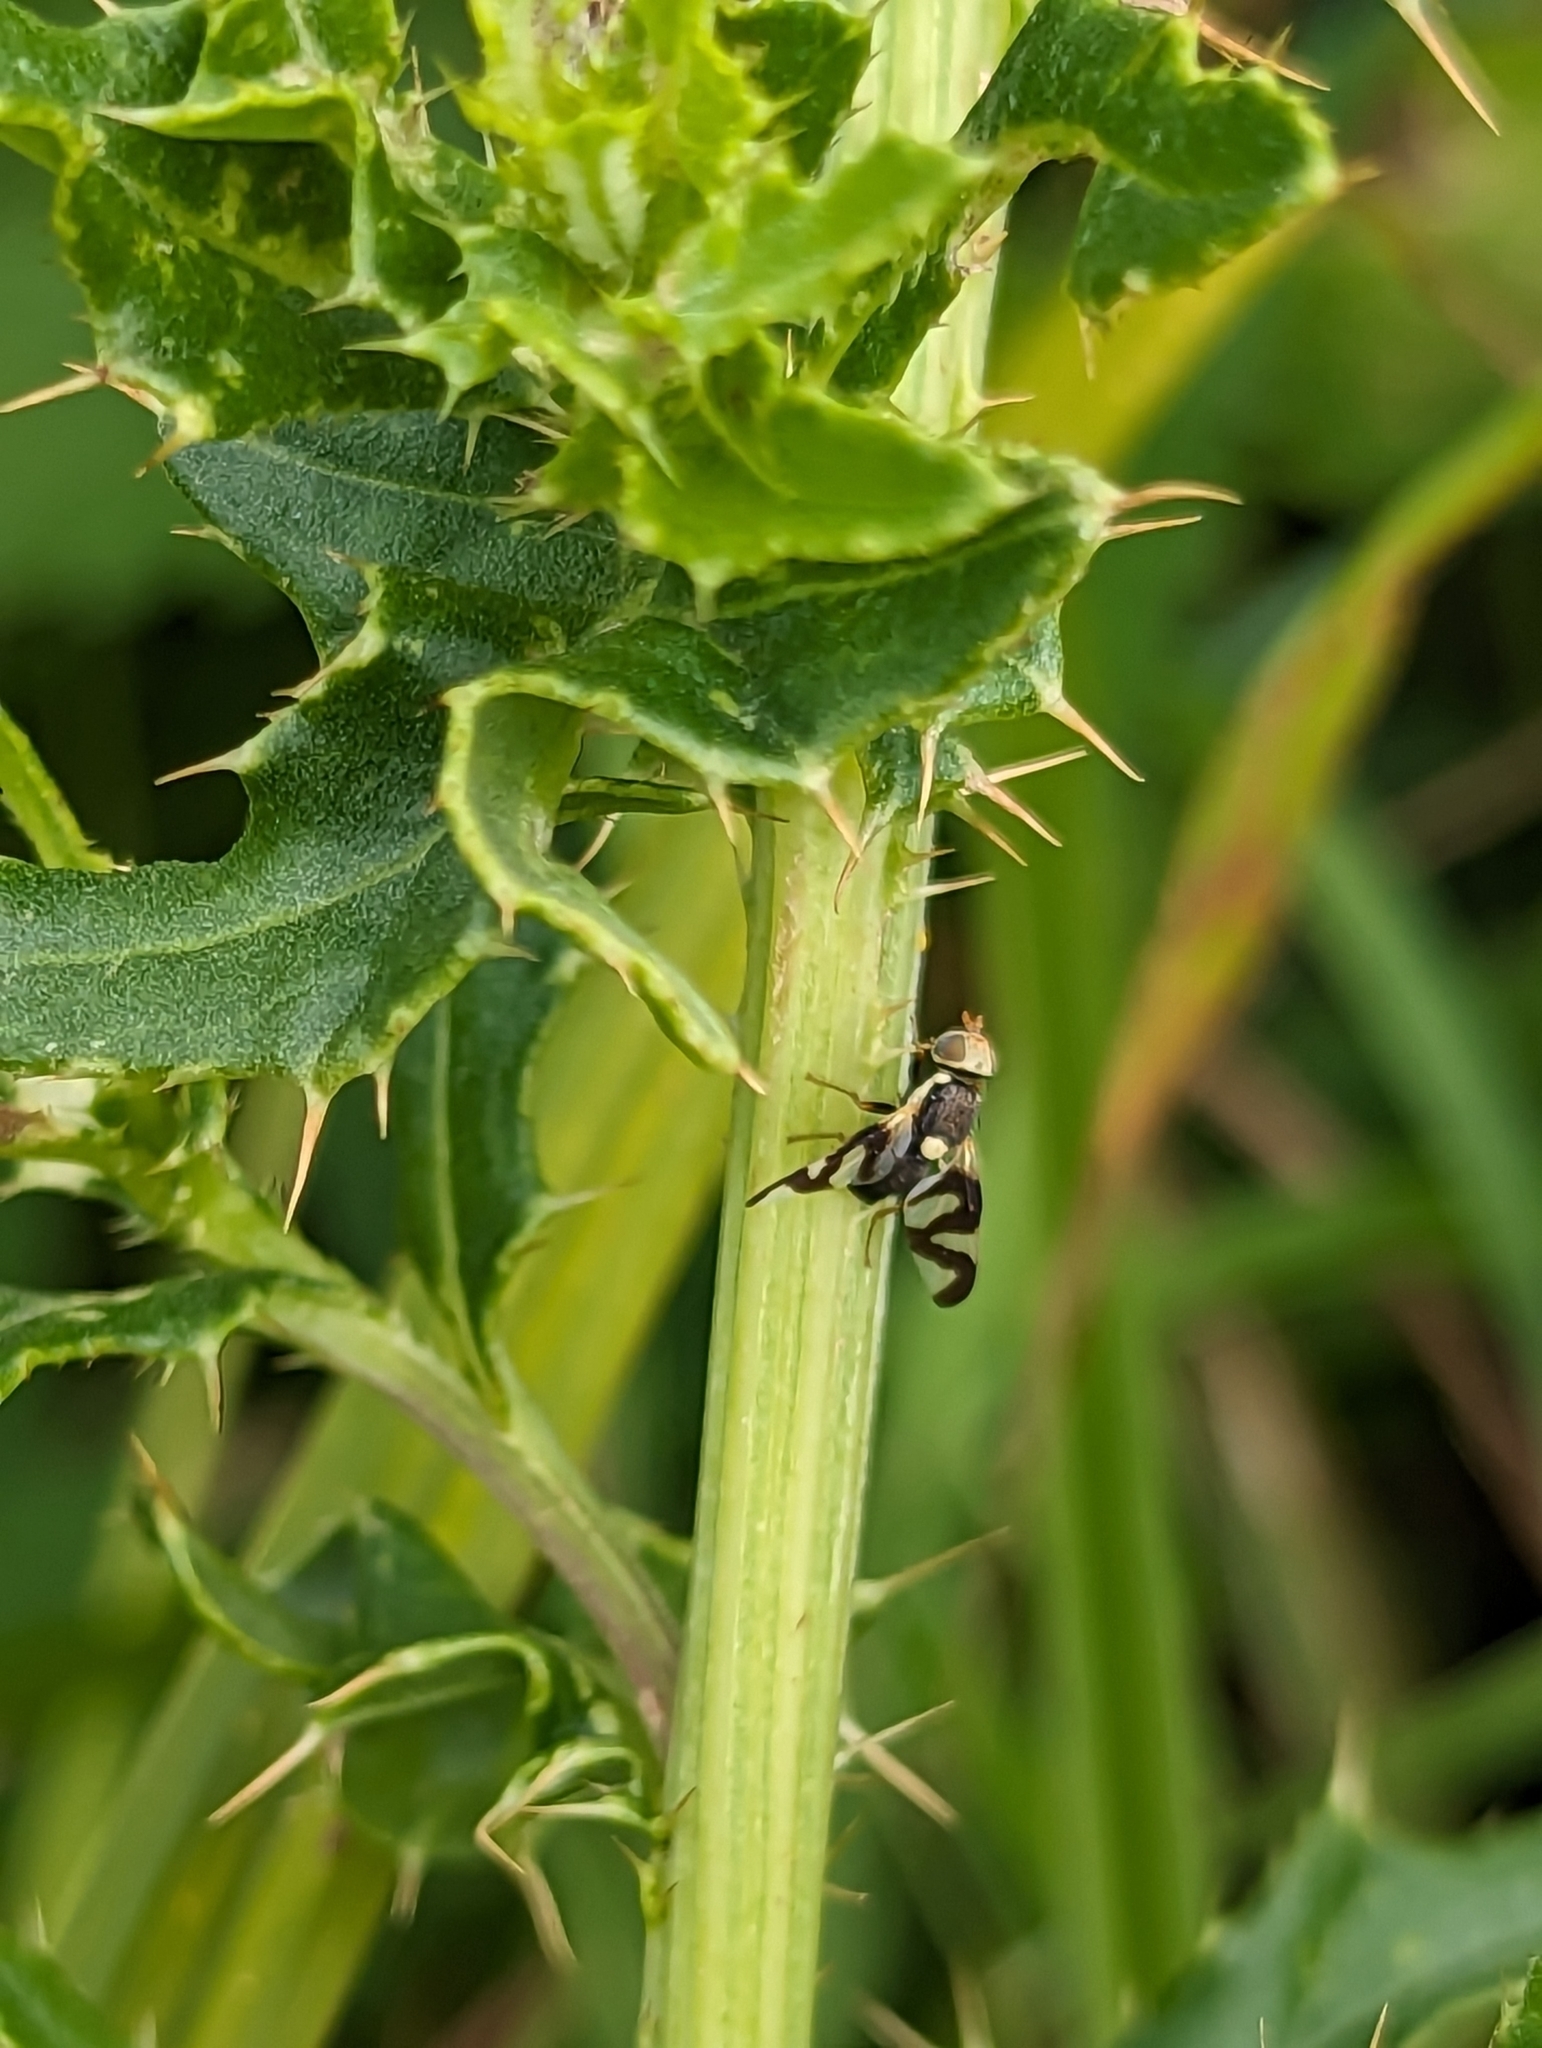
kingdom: Animalia
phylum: Arthropoda
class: Insecta
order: Diptera
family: Tephritidae
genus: Urophora
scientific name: Urophora cardui
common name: Fruit fly
